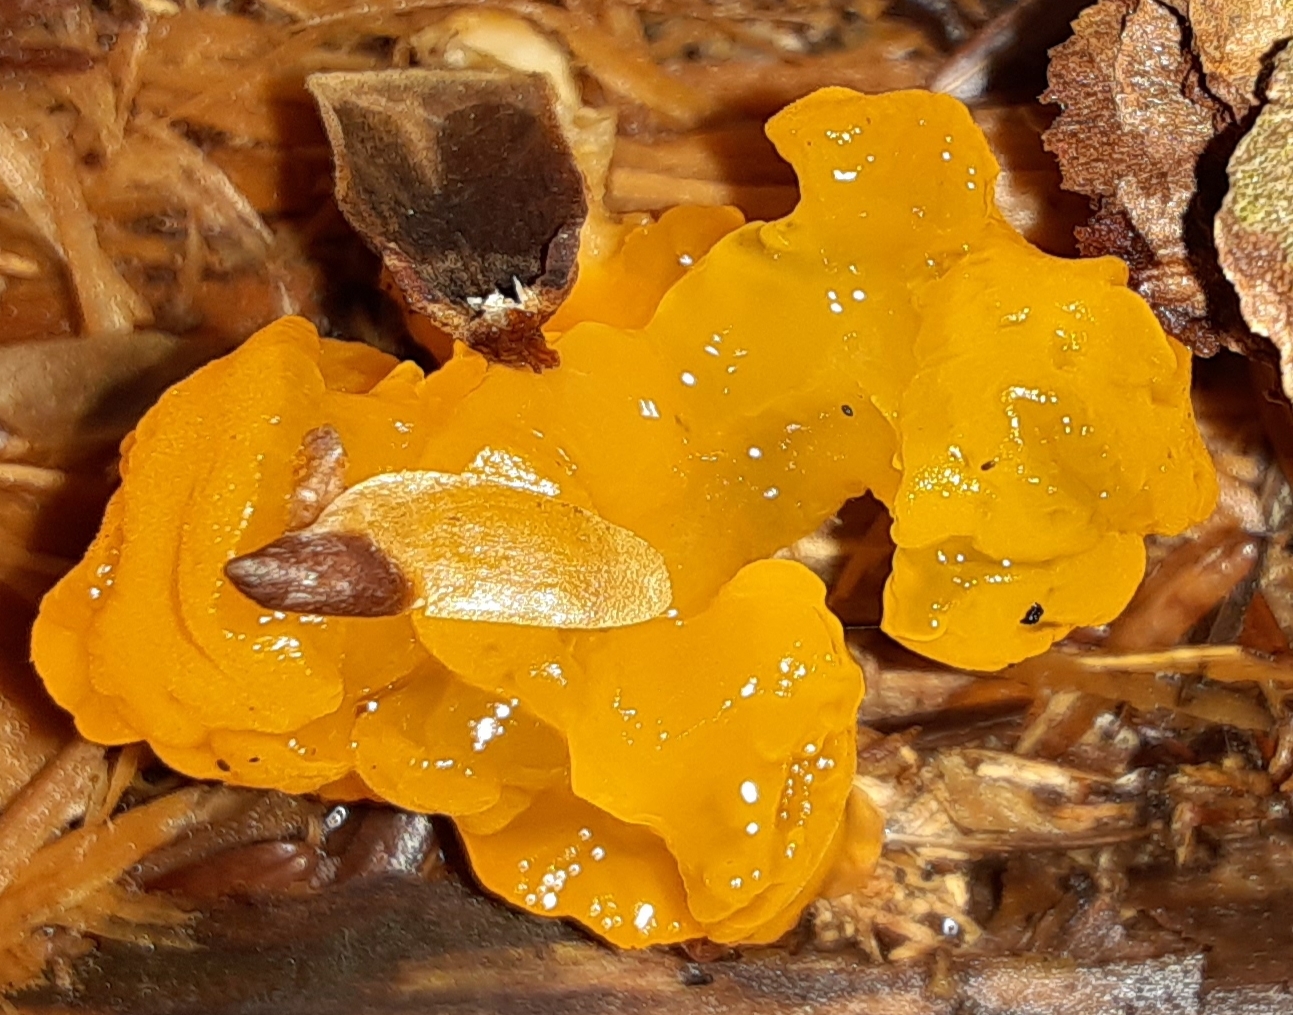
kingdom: Fungi
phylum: Basidiomycota
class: Dacrymycetes
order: Dacrymycetales
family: Dacrymycetaceae
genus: Dacrymyces
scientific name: Dacrymyces chrysospermus
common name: Orange jelly spot
